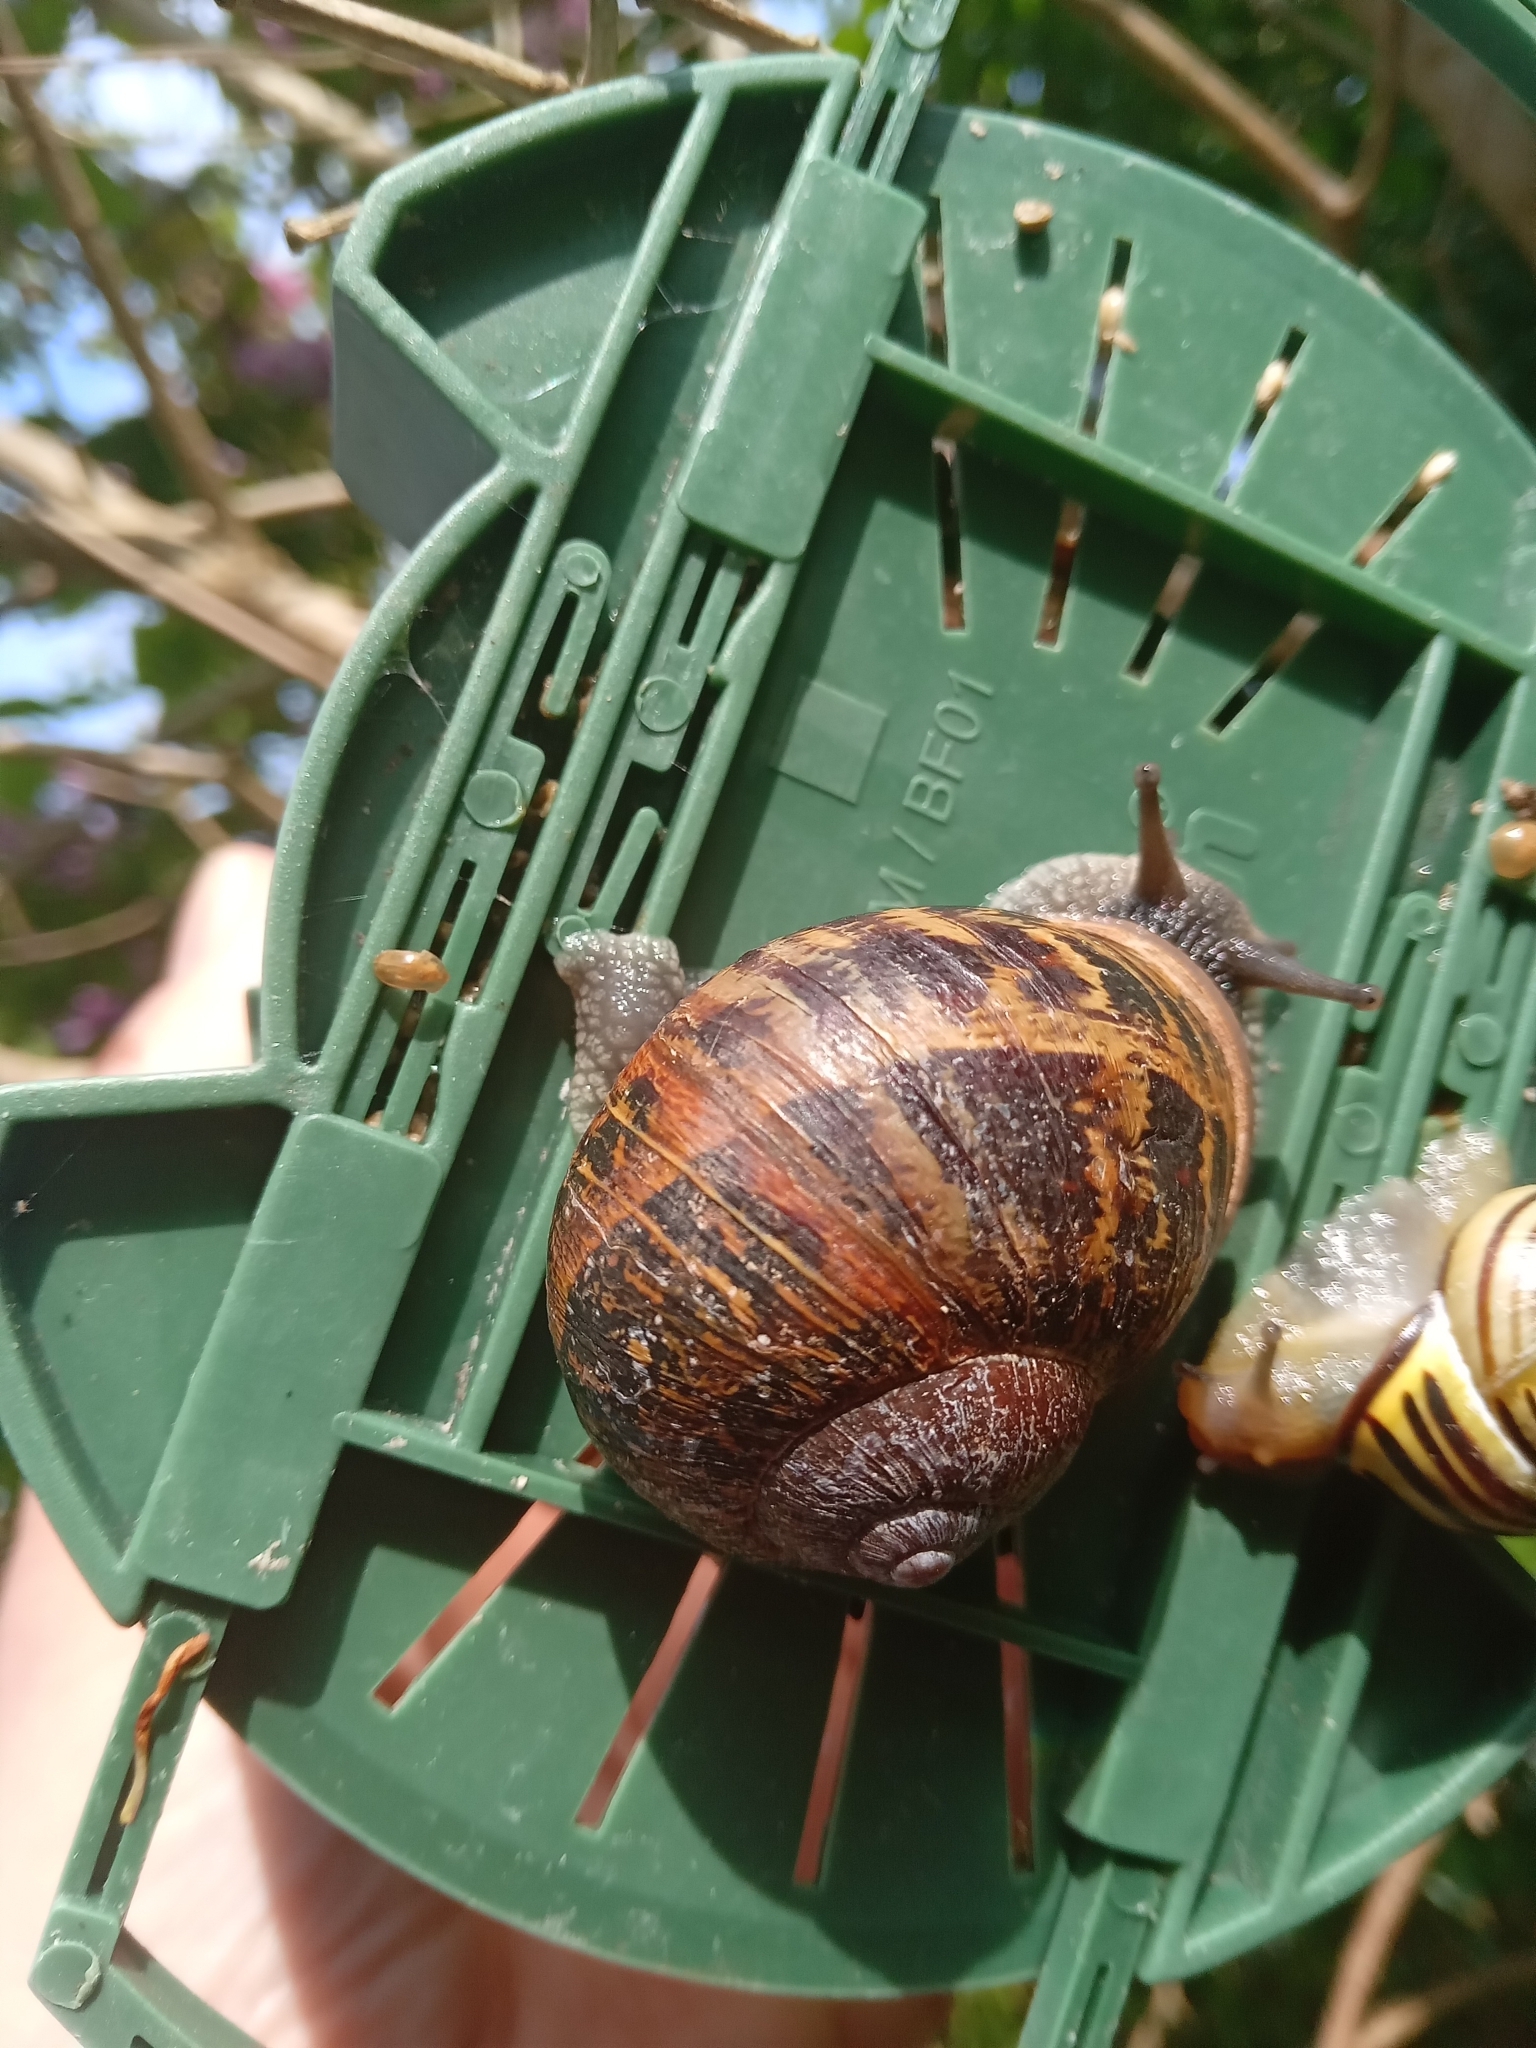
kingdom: Animalia
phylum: Mollusca
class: Gastropoda
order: Stylommatophora
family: Helicidae
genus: Cornu
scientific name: Cornu aspersum
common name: Brown garden snail
